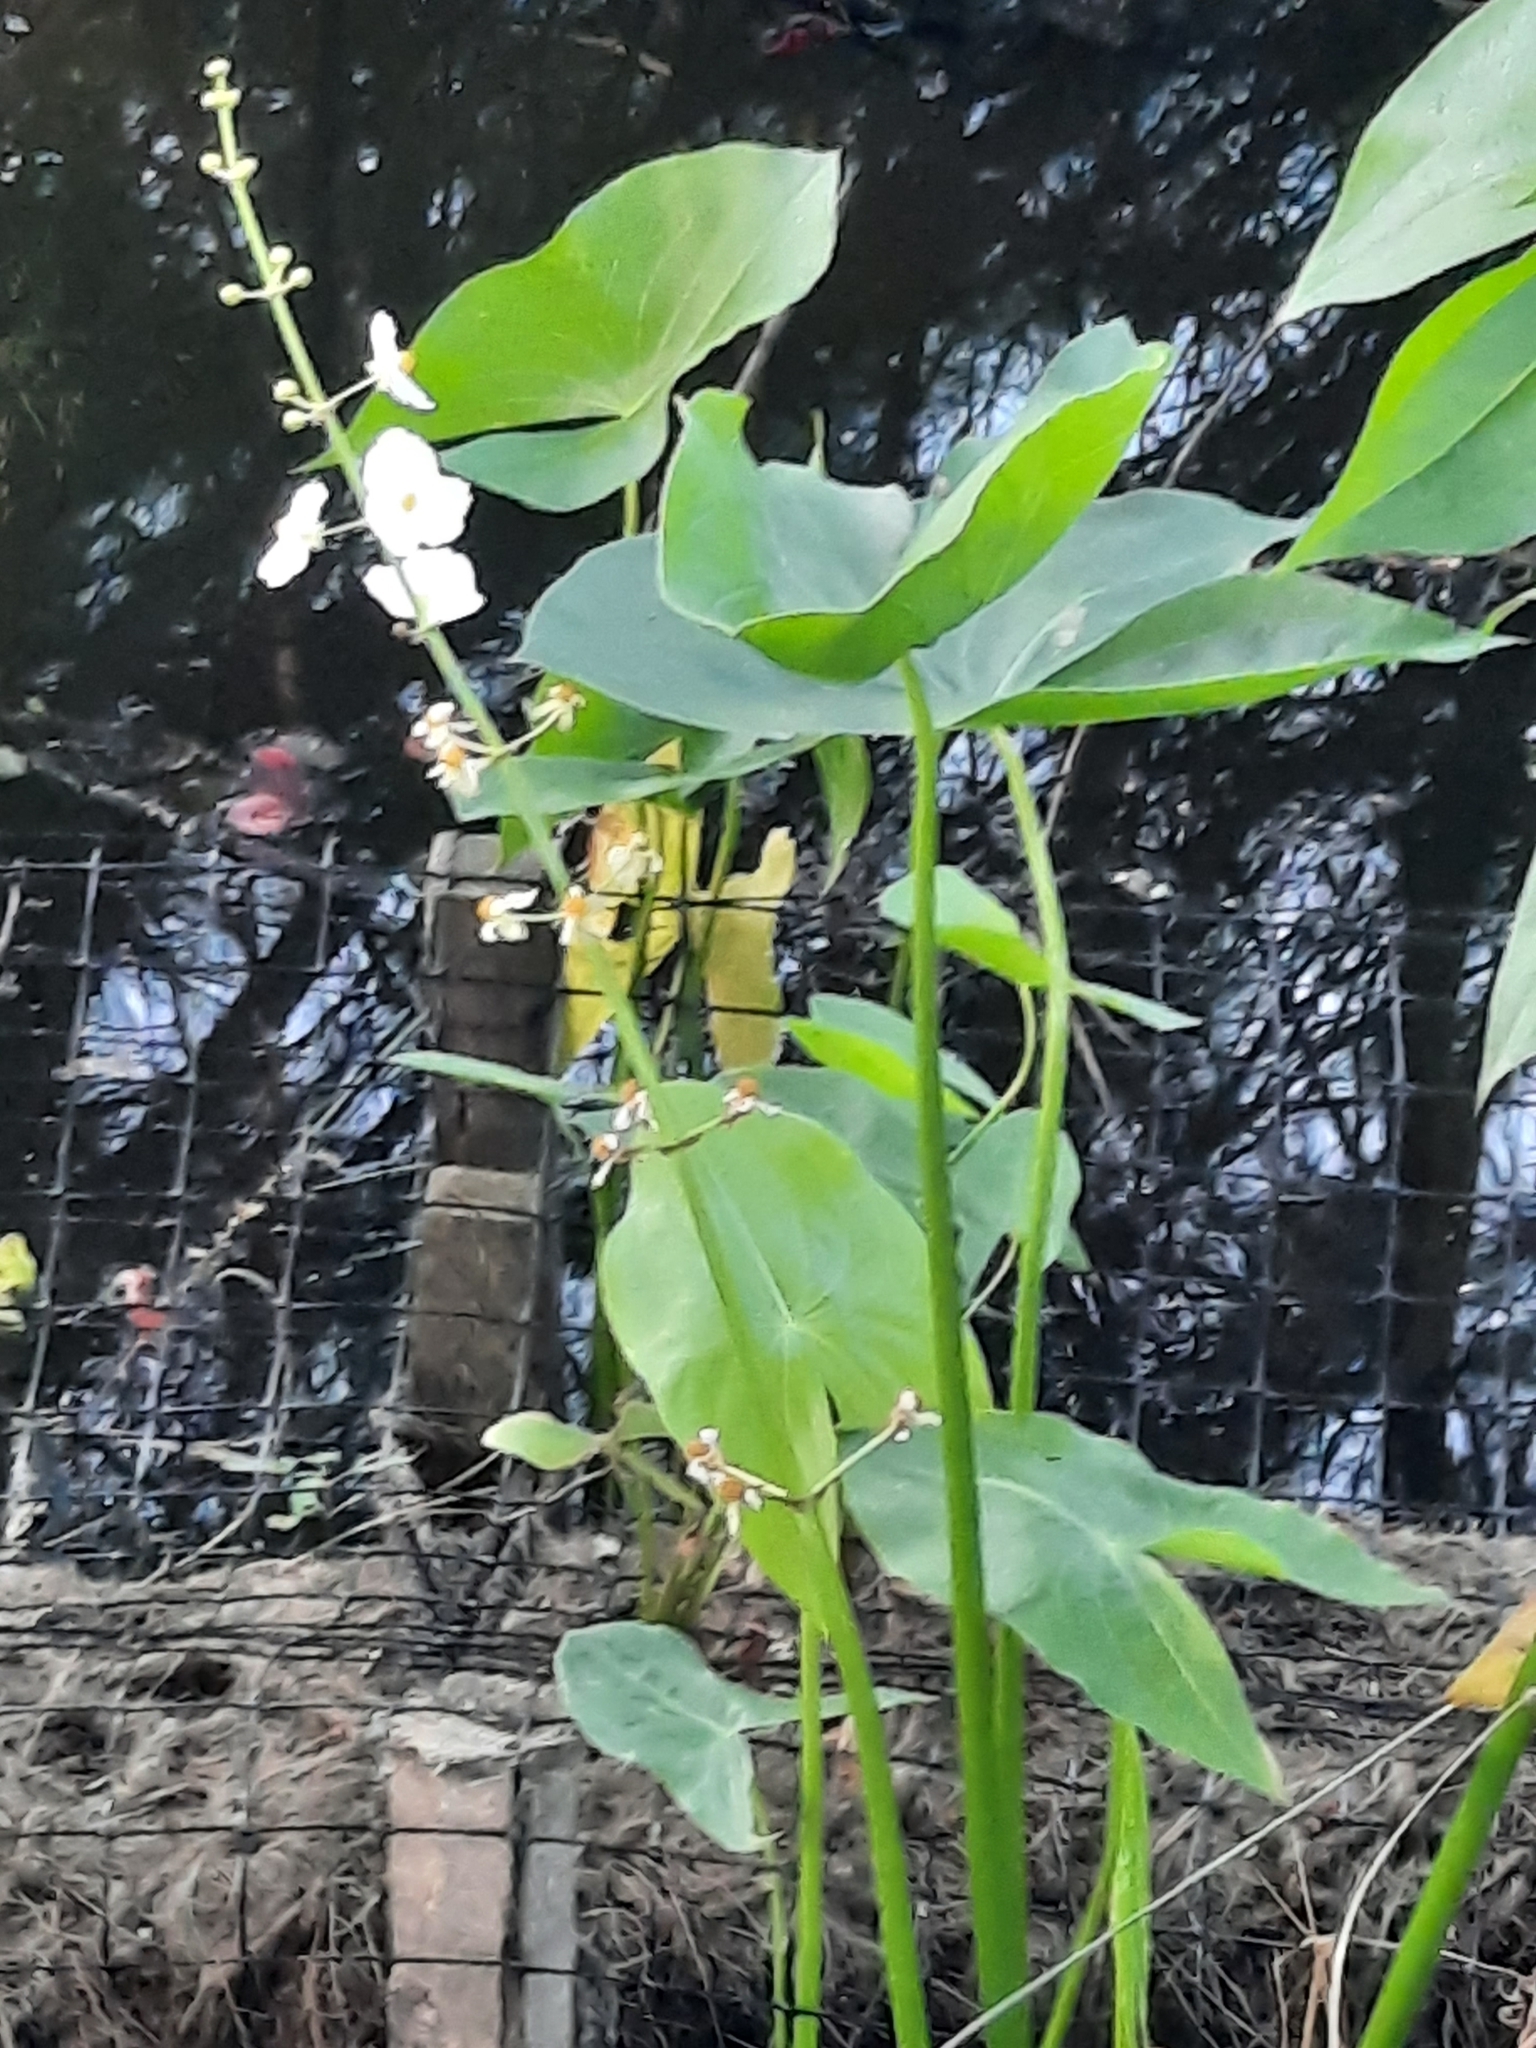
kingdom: Plantae
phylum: Tracheophyta
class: Liliopsida
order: Alismatales
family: Alismataceae
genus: Sagittaria
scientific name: Sagittaria latifolia
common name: Duck-potato
